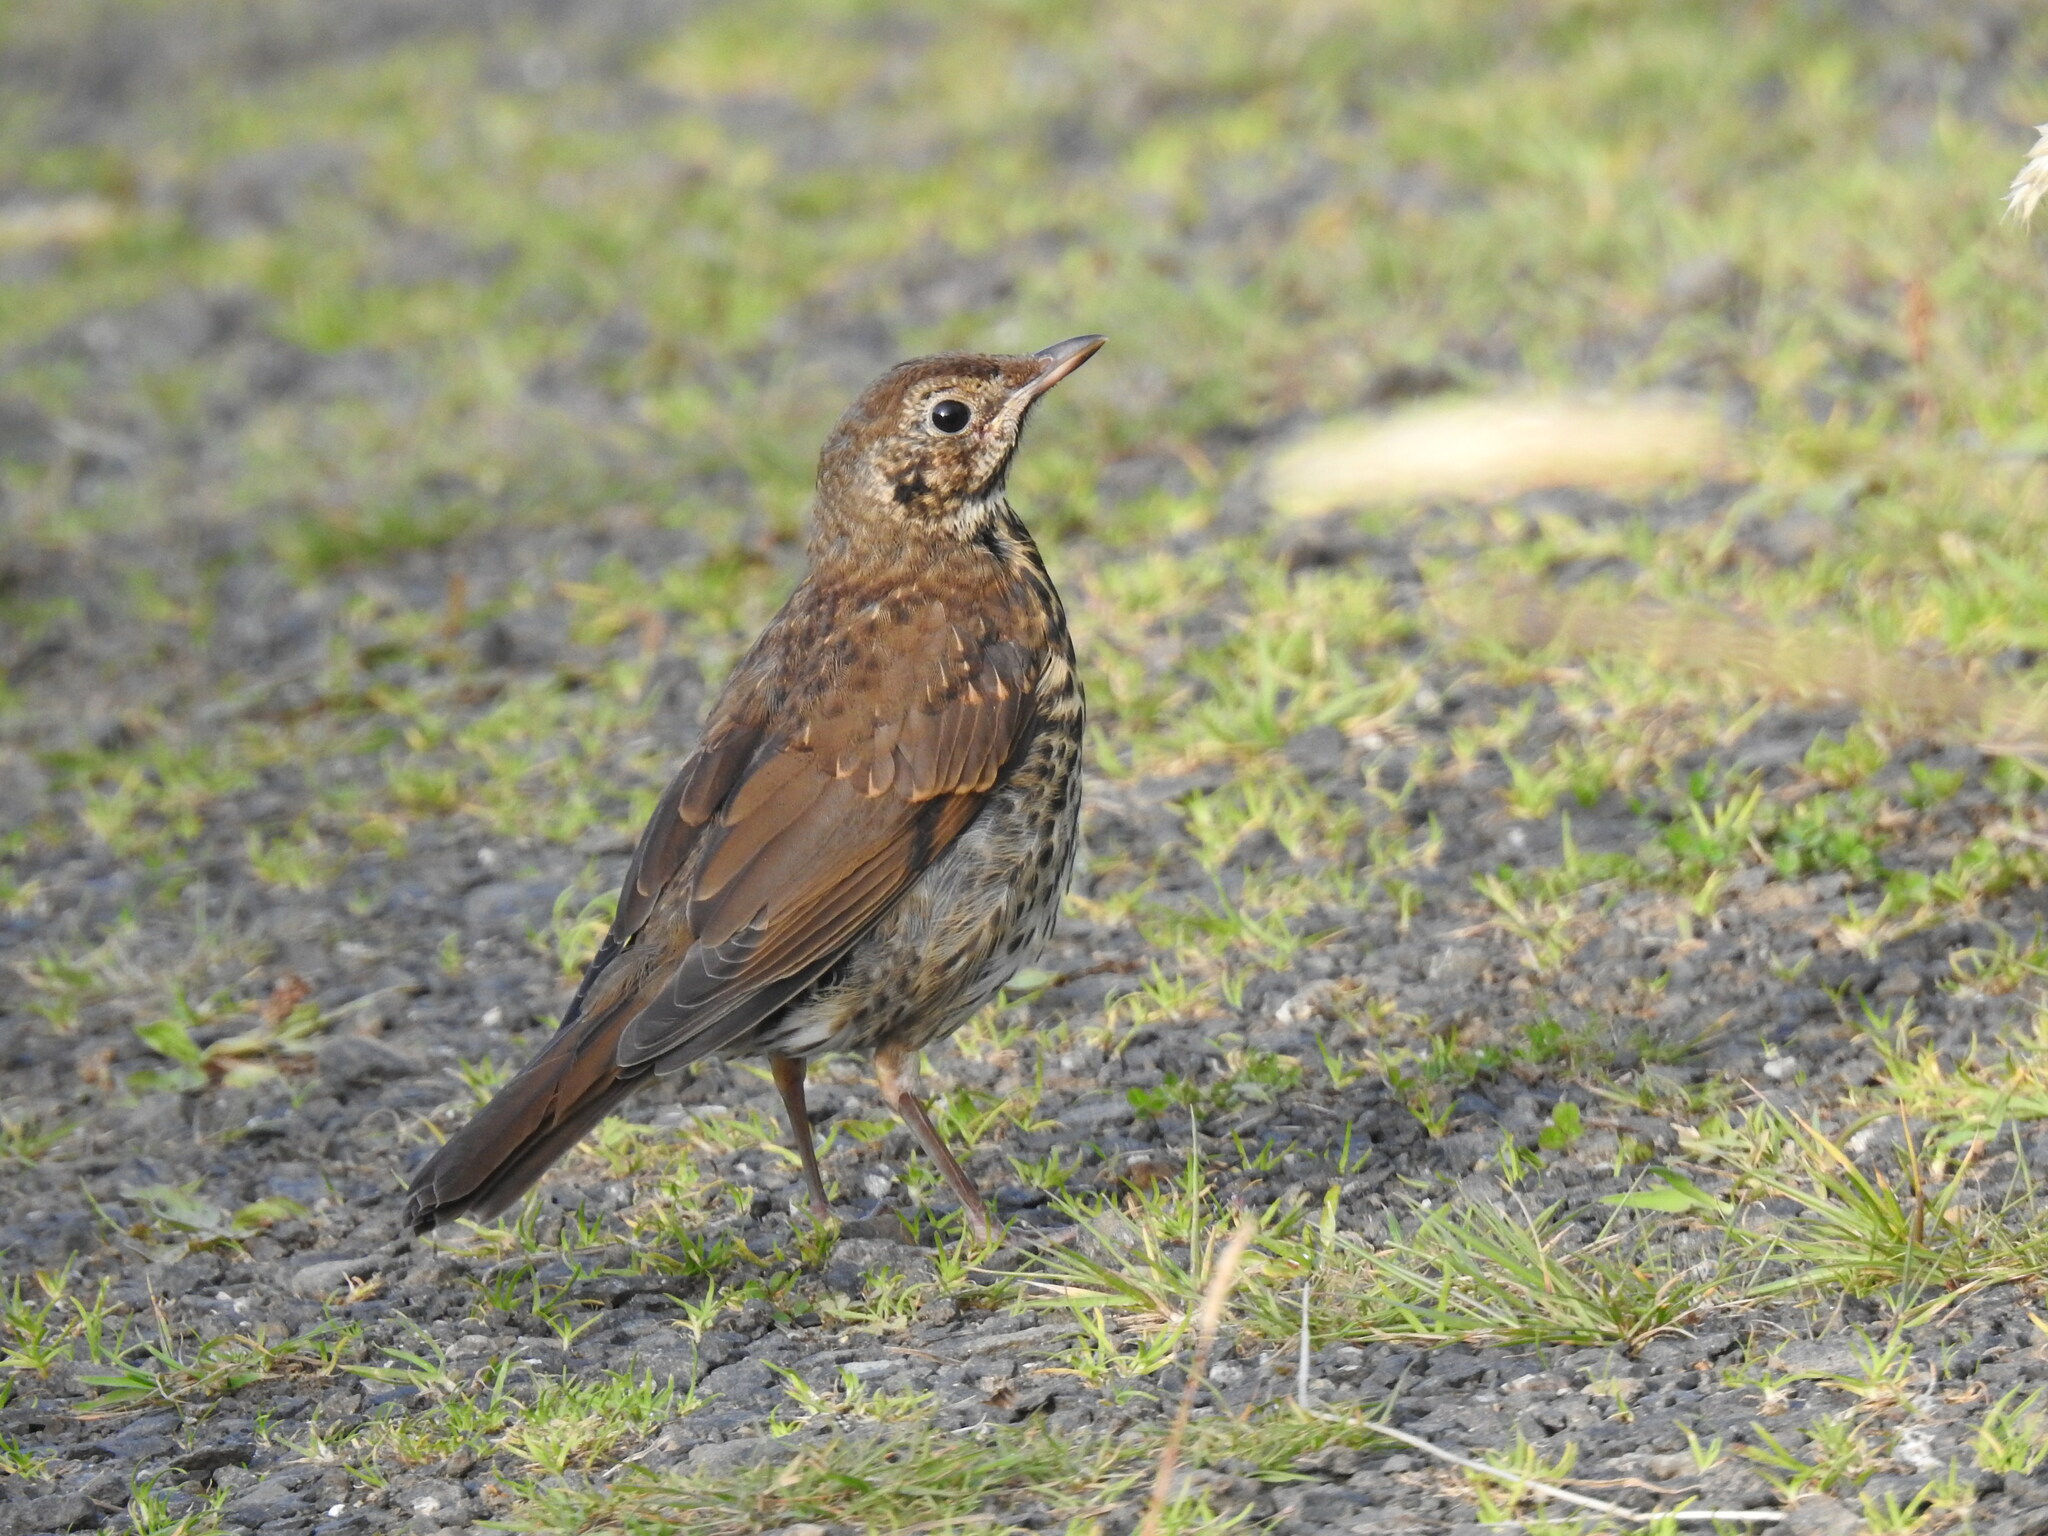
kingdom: Animalia
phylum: Chordata
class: Aves
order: Passeriformes
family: Turdidae
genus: Turdus
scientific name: Turdus philomelos
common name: Song thrush
